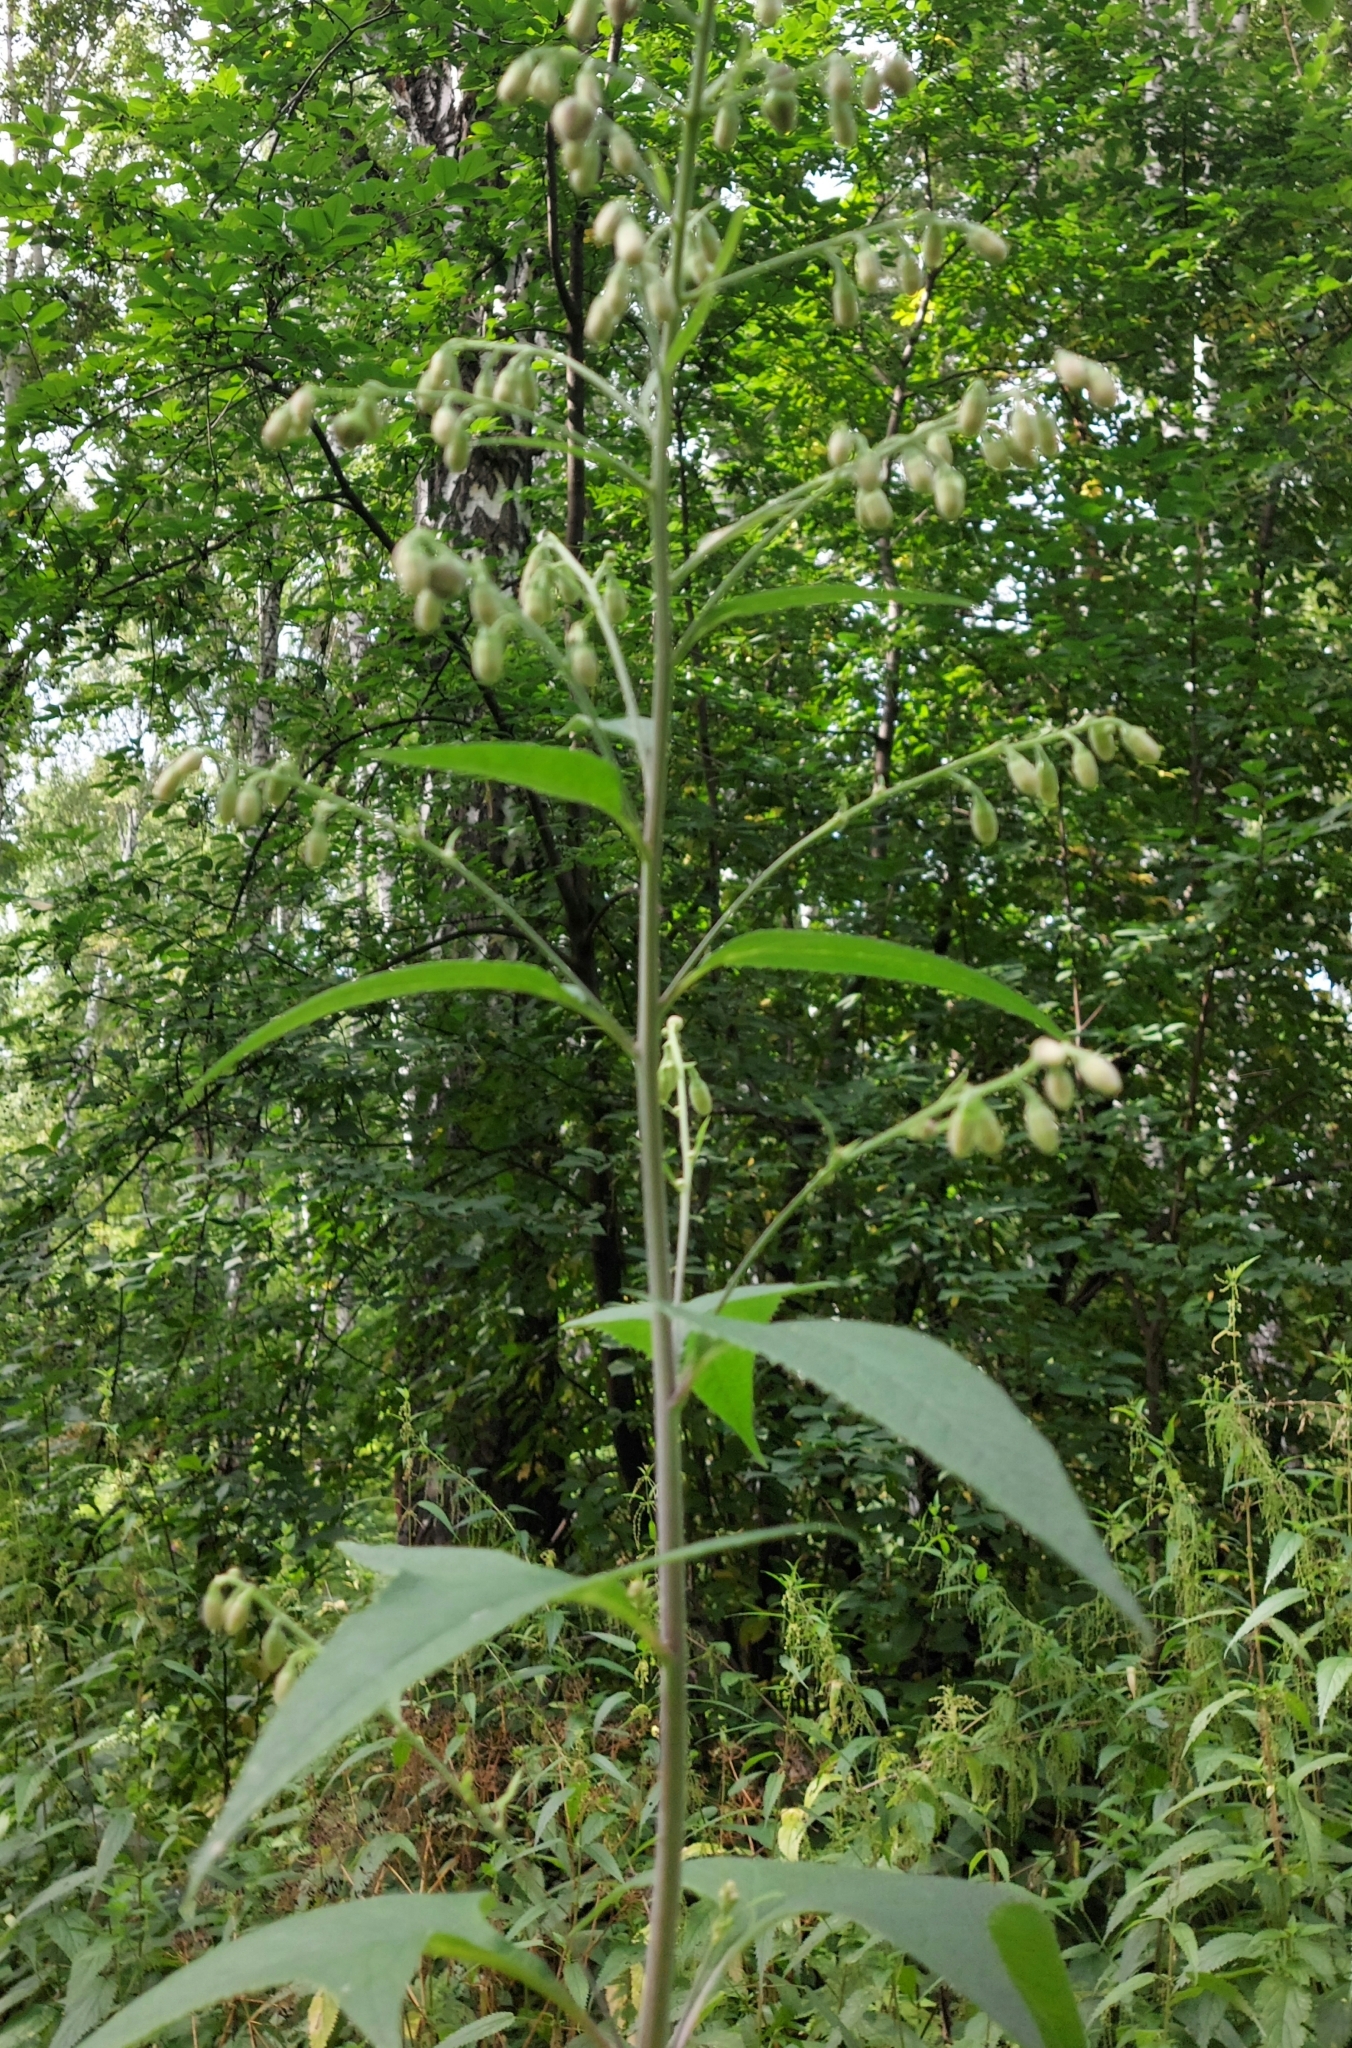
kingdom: Plantae
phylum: Tracheophyta
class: Magnoliopsida
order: Asterales
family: Asteraceae
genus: Parasenecio
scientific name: Parasenecio hastatus
